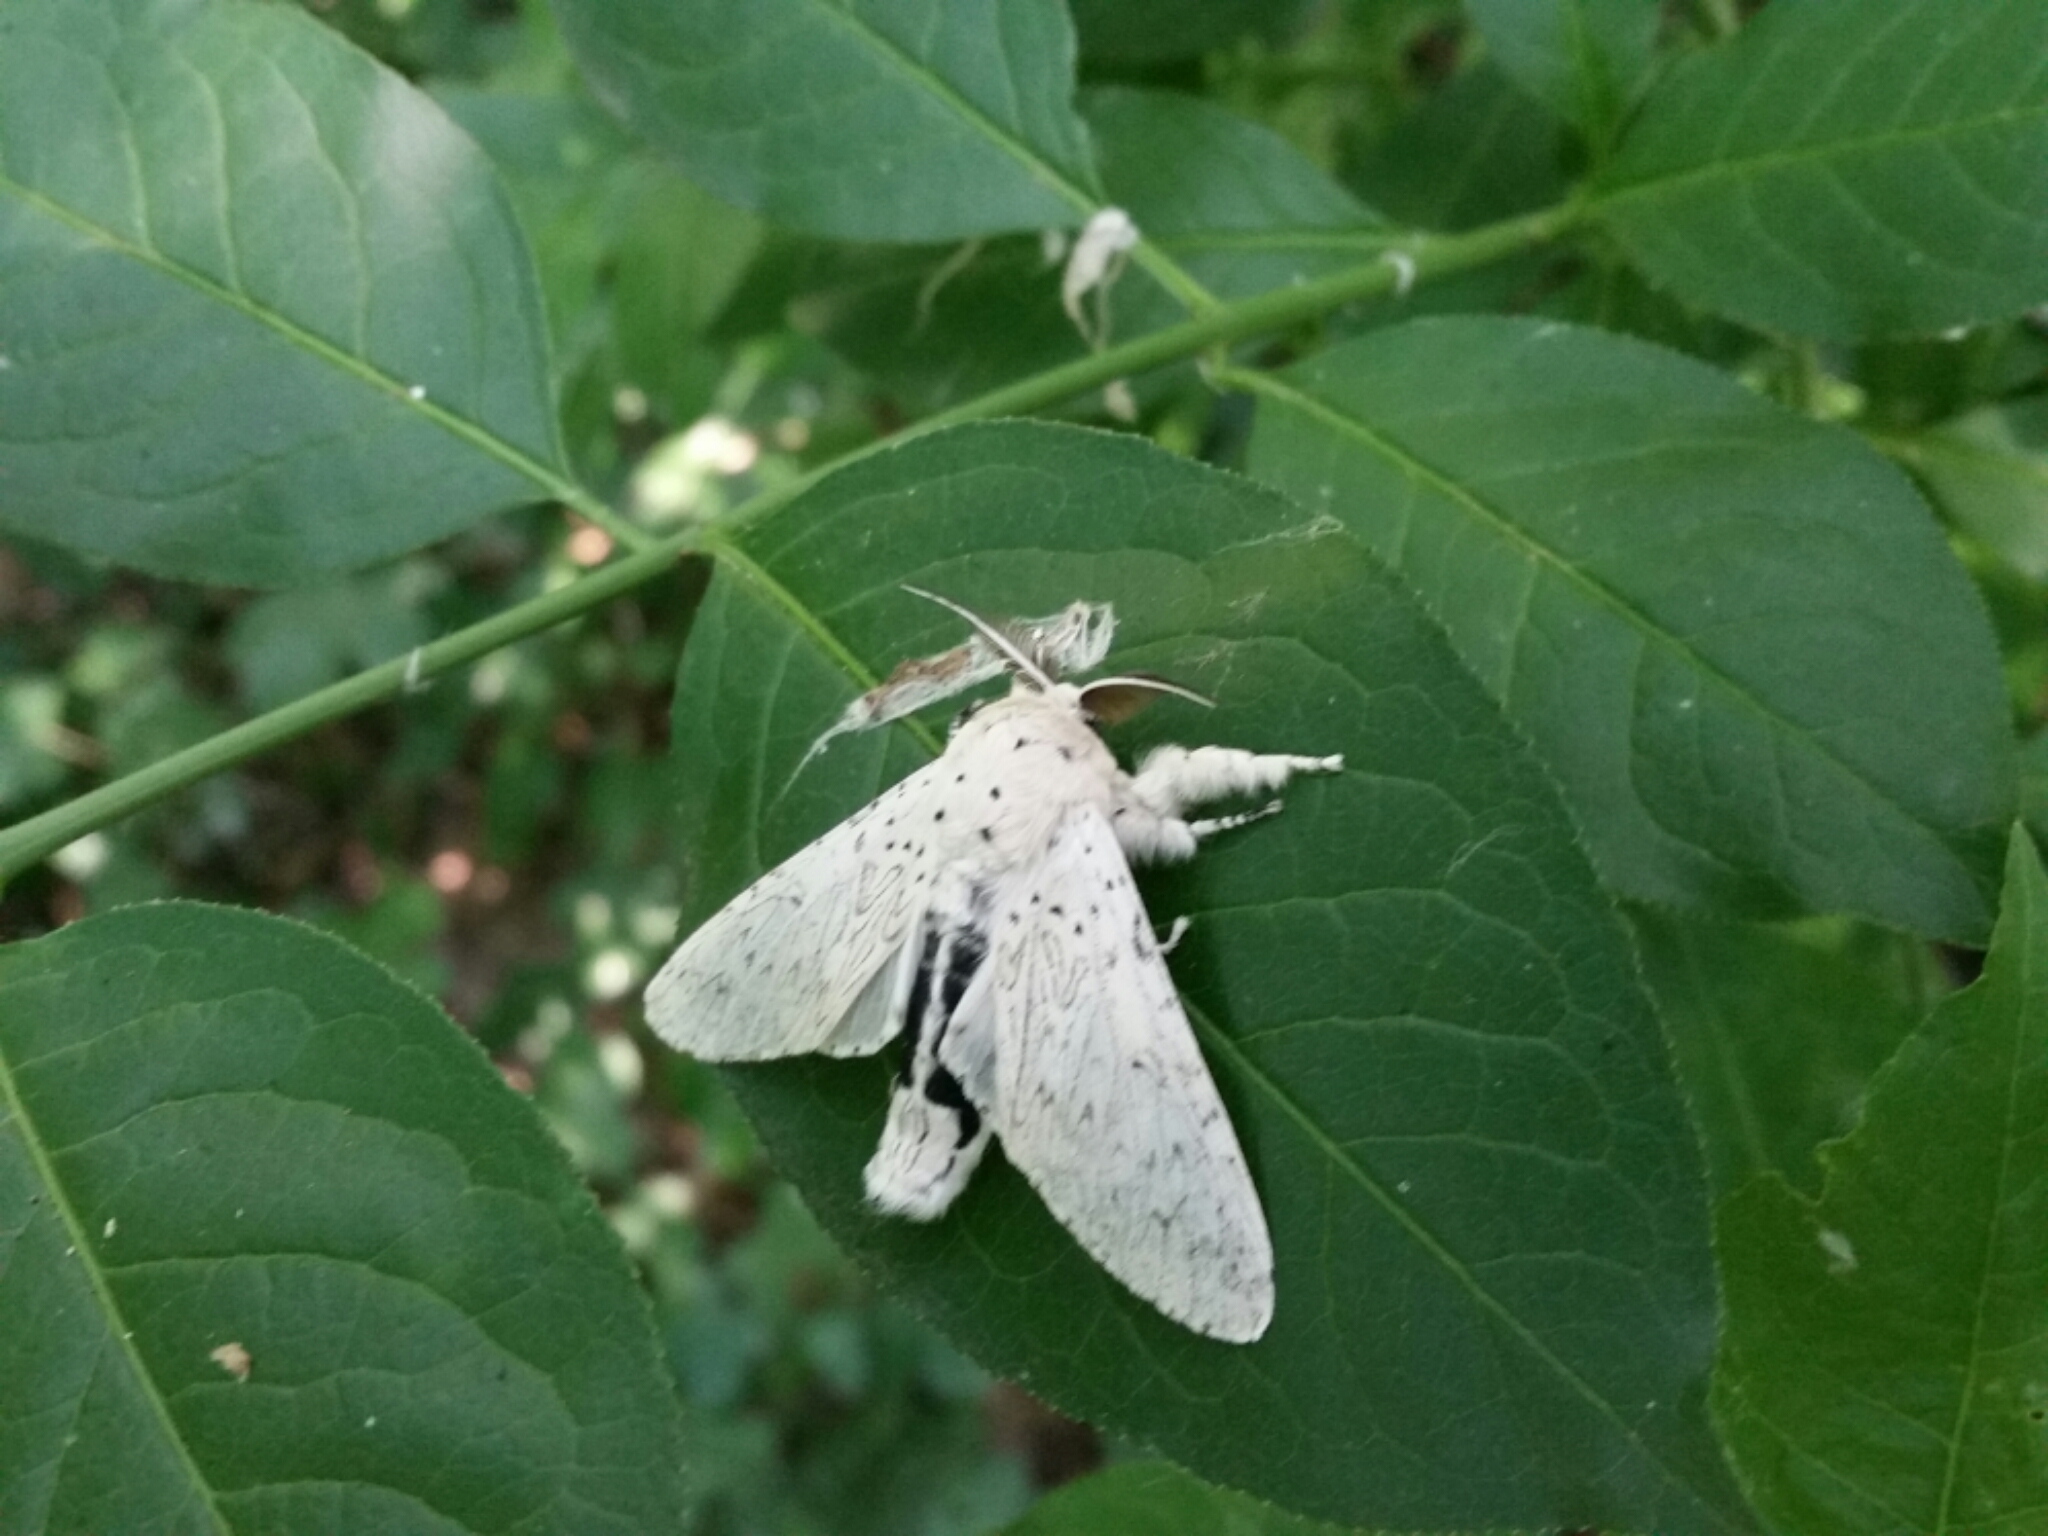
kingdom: Animalia
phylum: Arthropoda
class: Insecta
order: Lepidoptera
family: Notodontidae
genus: Cerura
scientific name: Cerura erminea
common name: Lesser puss moth
